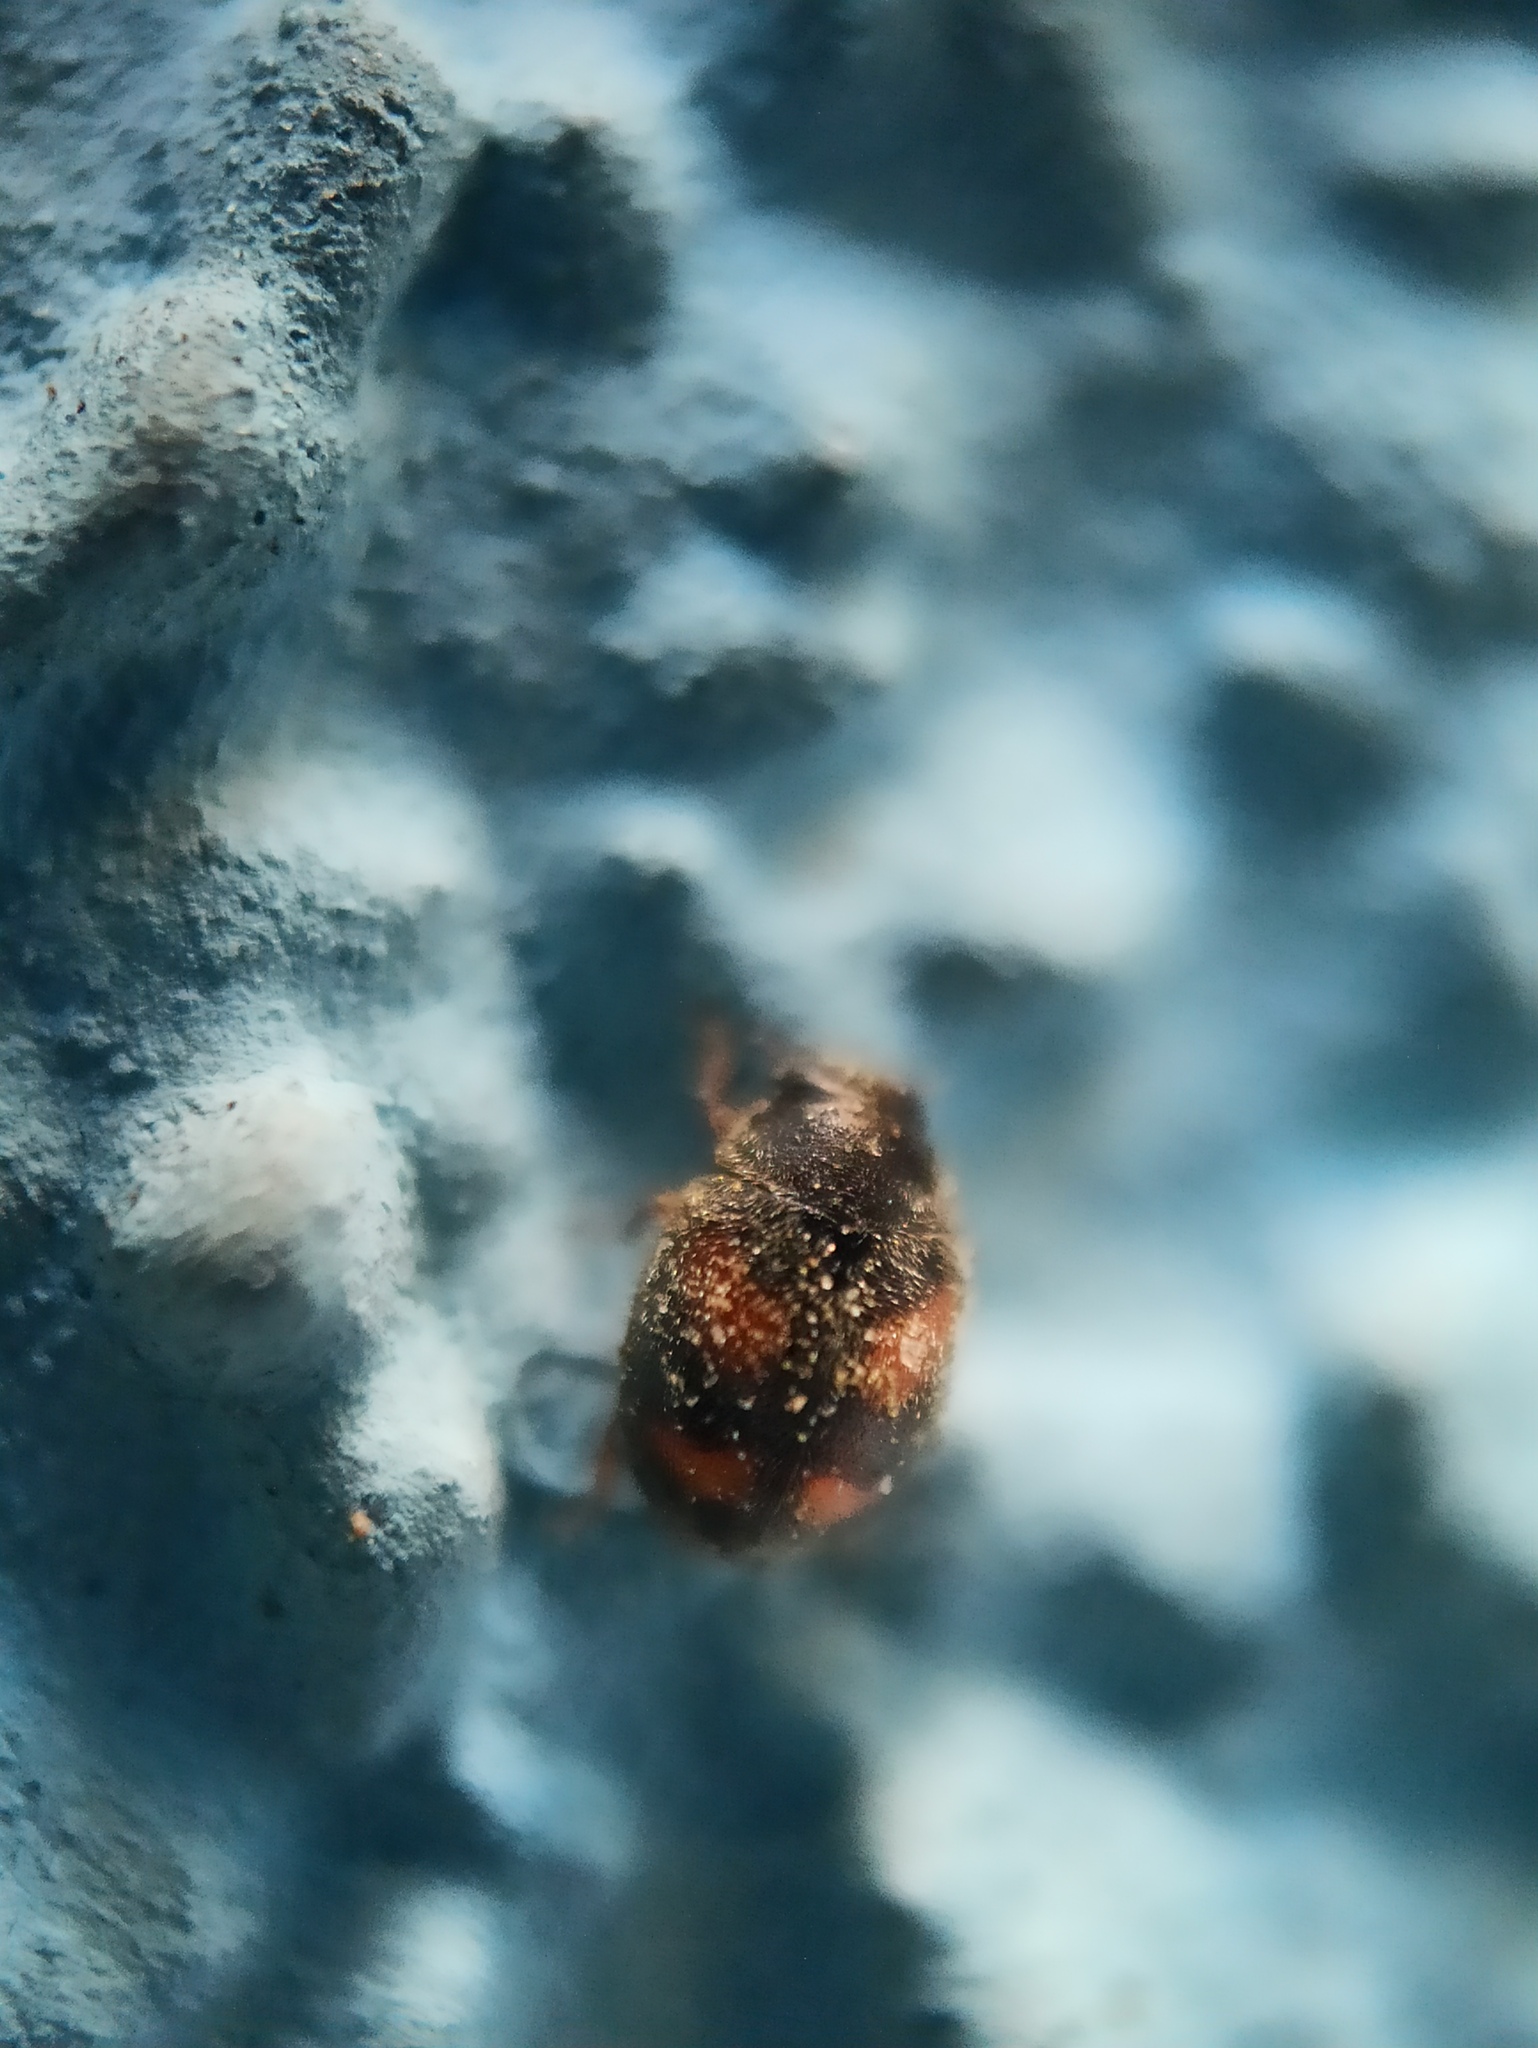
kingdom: Animalia
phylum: Arthropoda
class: Insecta
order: Coleoptera
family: Coccinellidae
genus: Nephus
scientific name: Nephus quadrimaculatus
